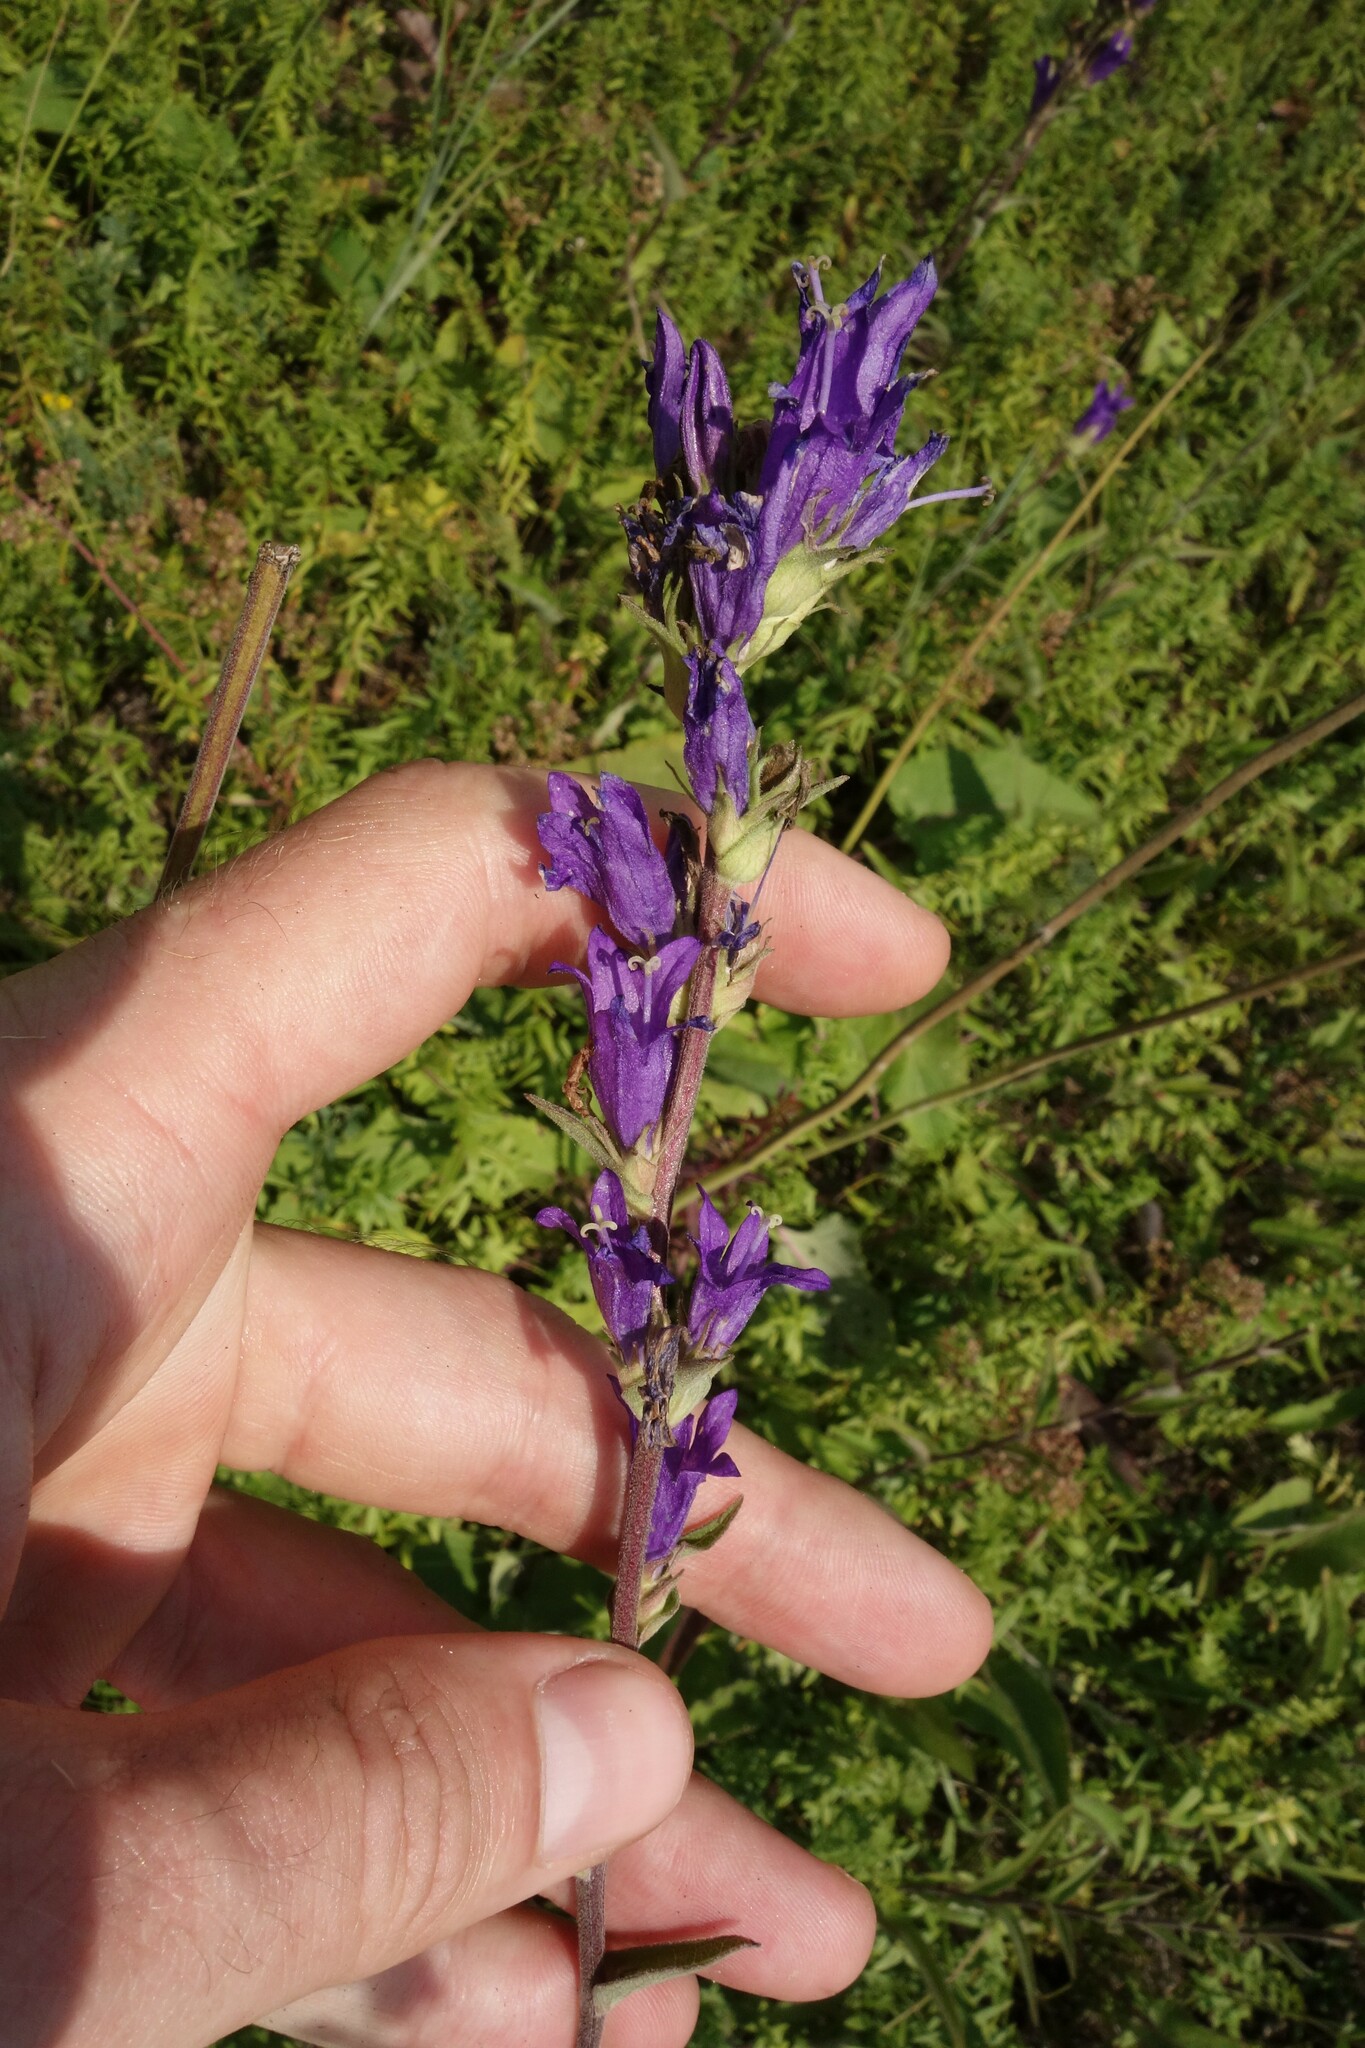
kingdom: Plantae
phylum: Tracheophyta
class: Magnoliopsida
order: Asterales
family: Campanulaceae
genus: Campanula
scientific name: Campanula glomerata
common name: Clustered bellflower
